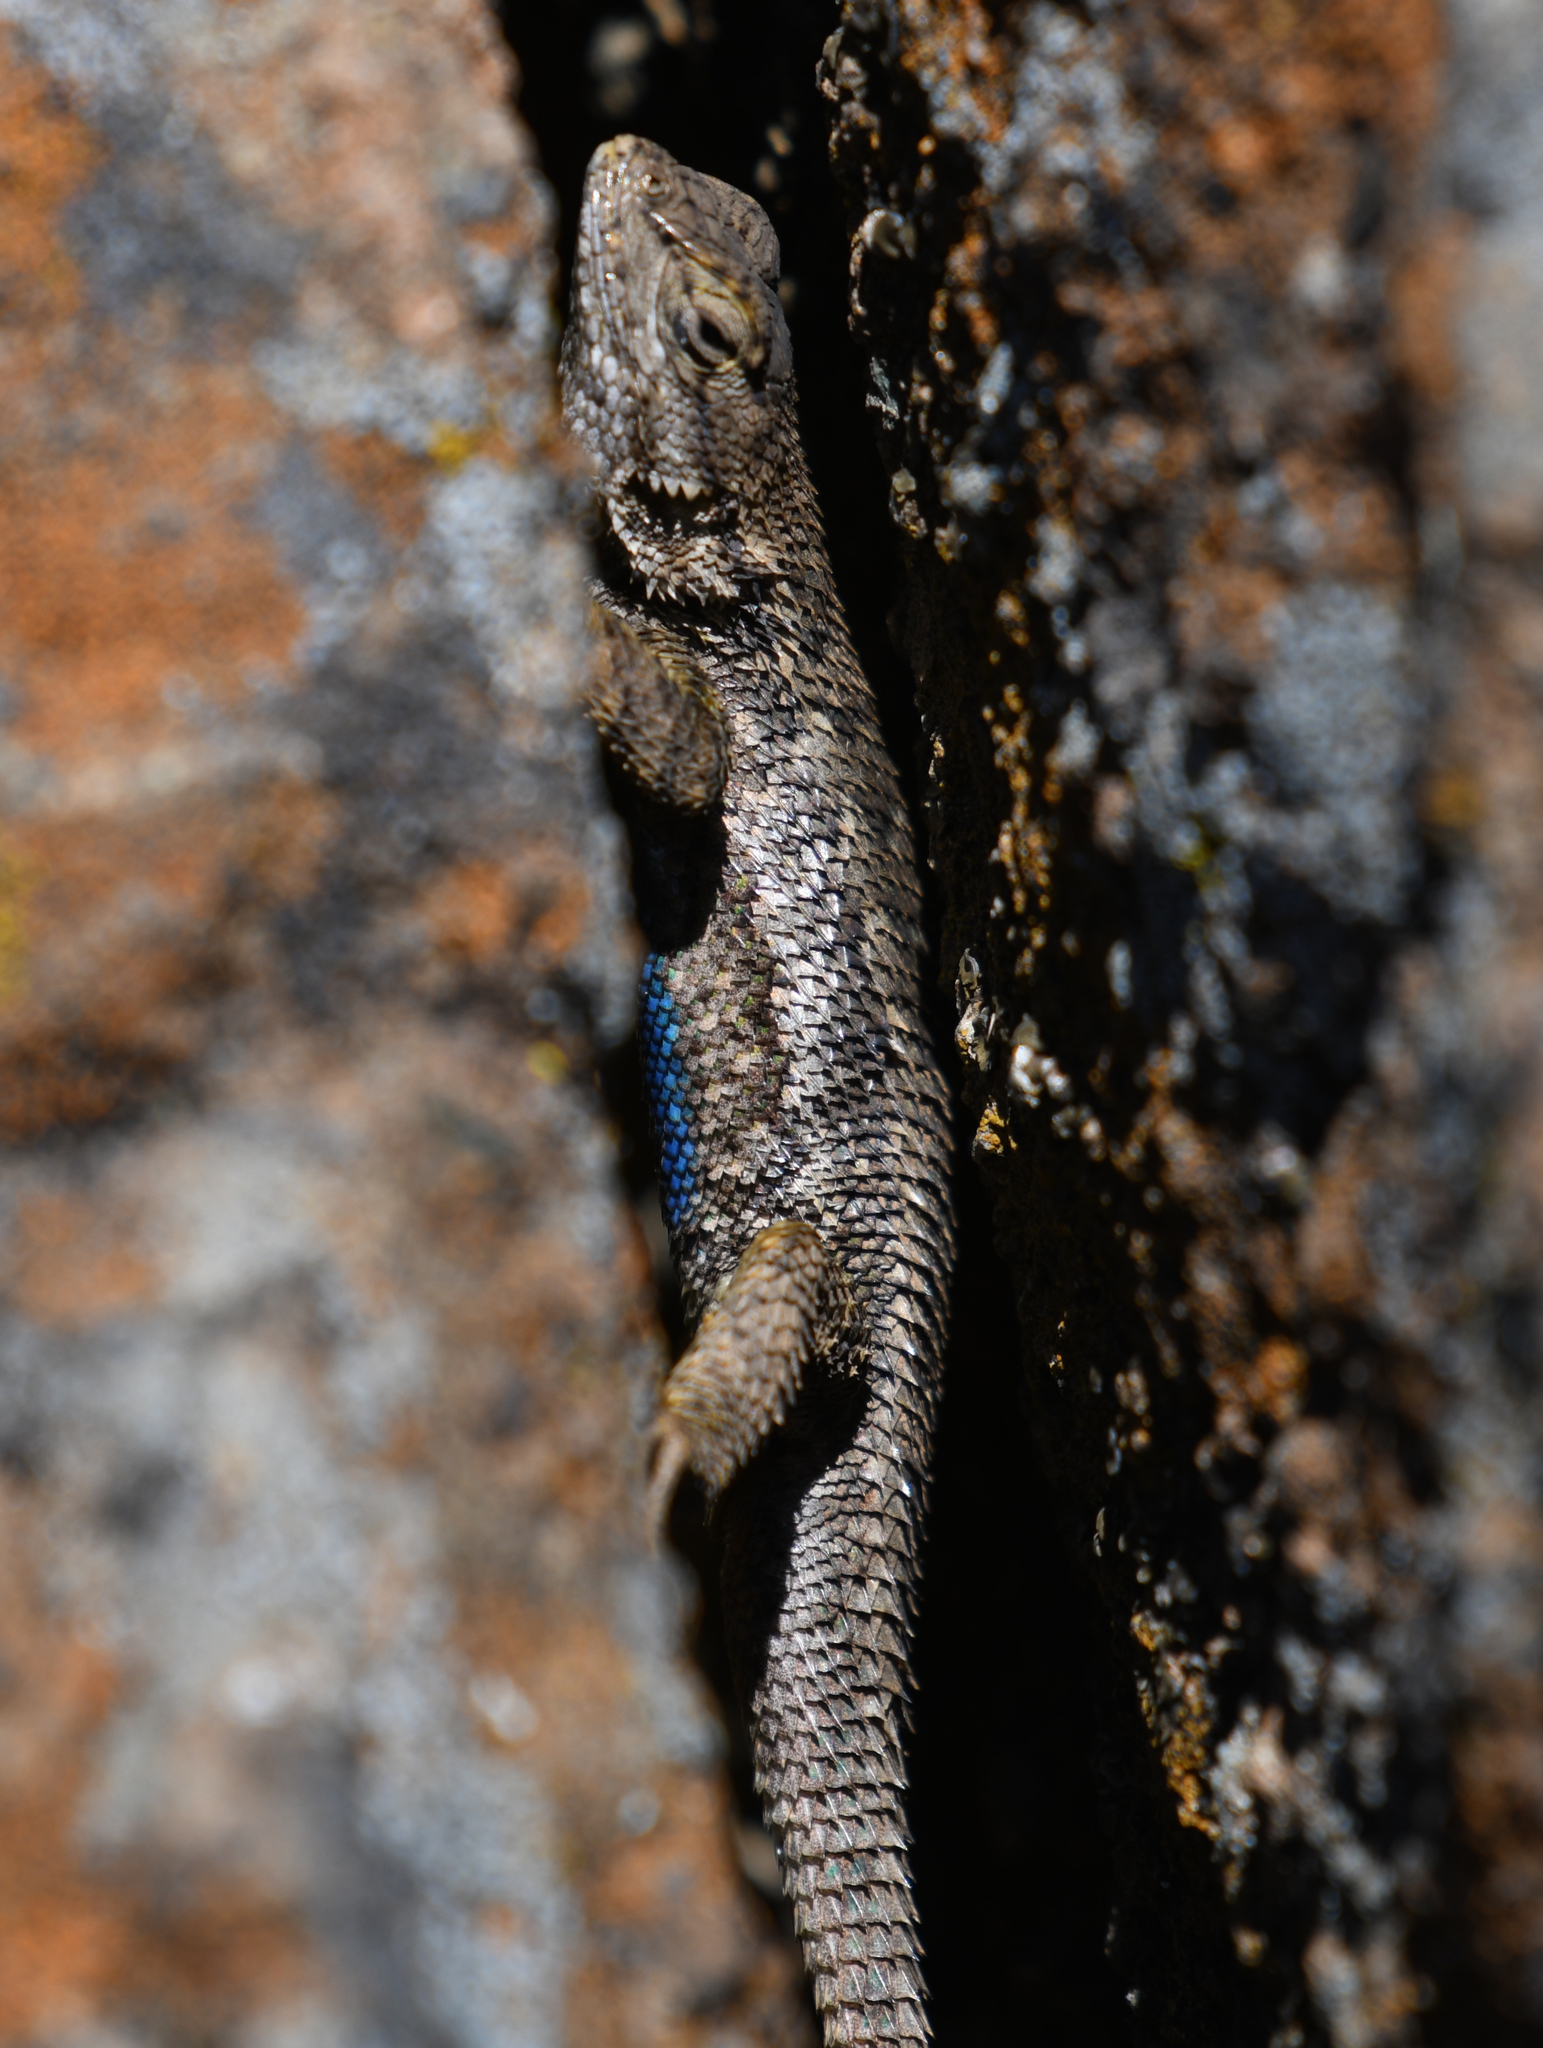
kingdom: Animalia
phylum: Chordata
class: Squamata
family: Phrynosomatidae
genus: Sceloporus
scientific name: Sceloporus occidentalis
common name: Western fence lizard
